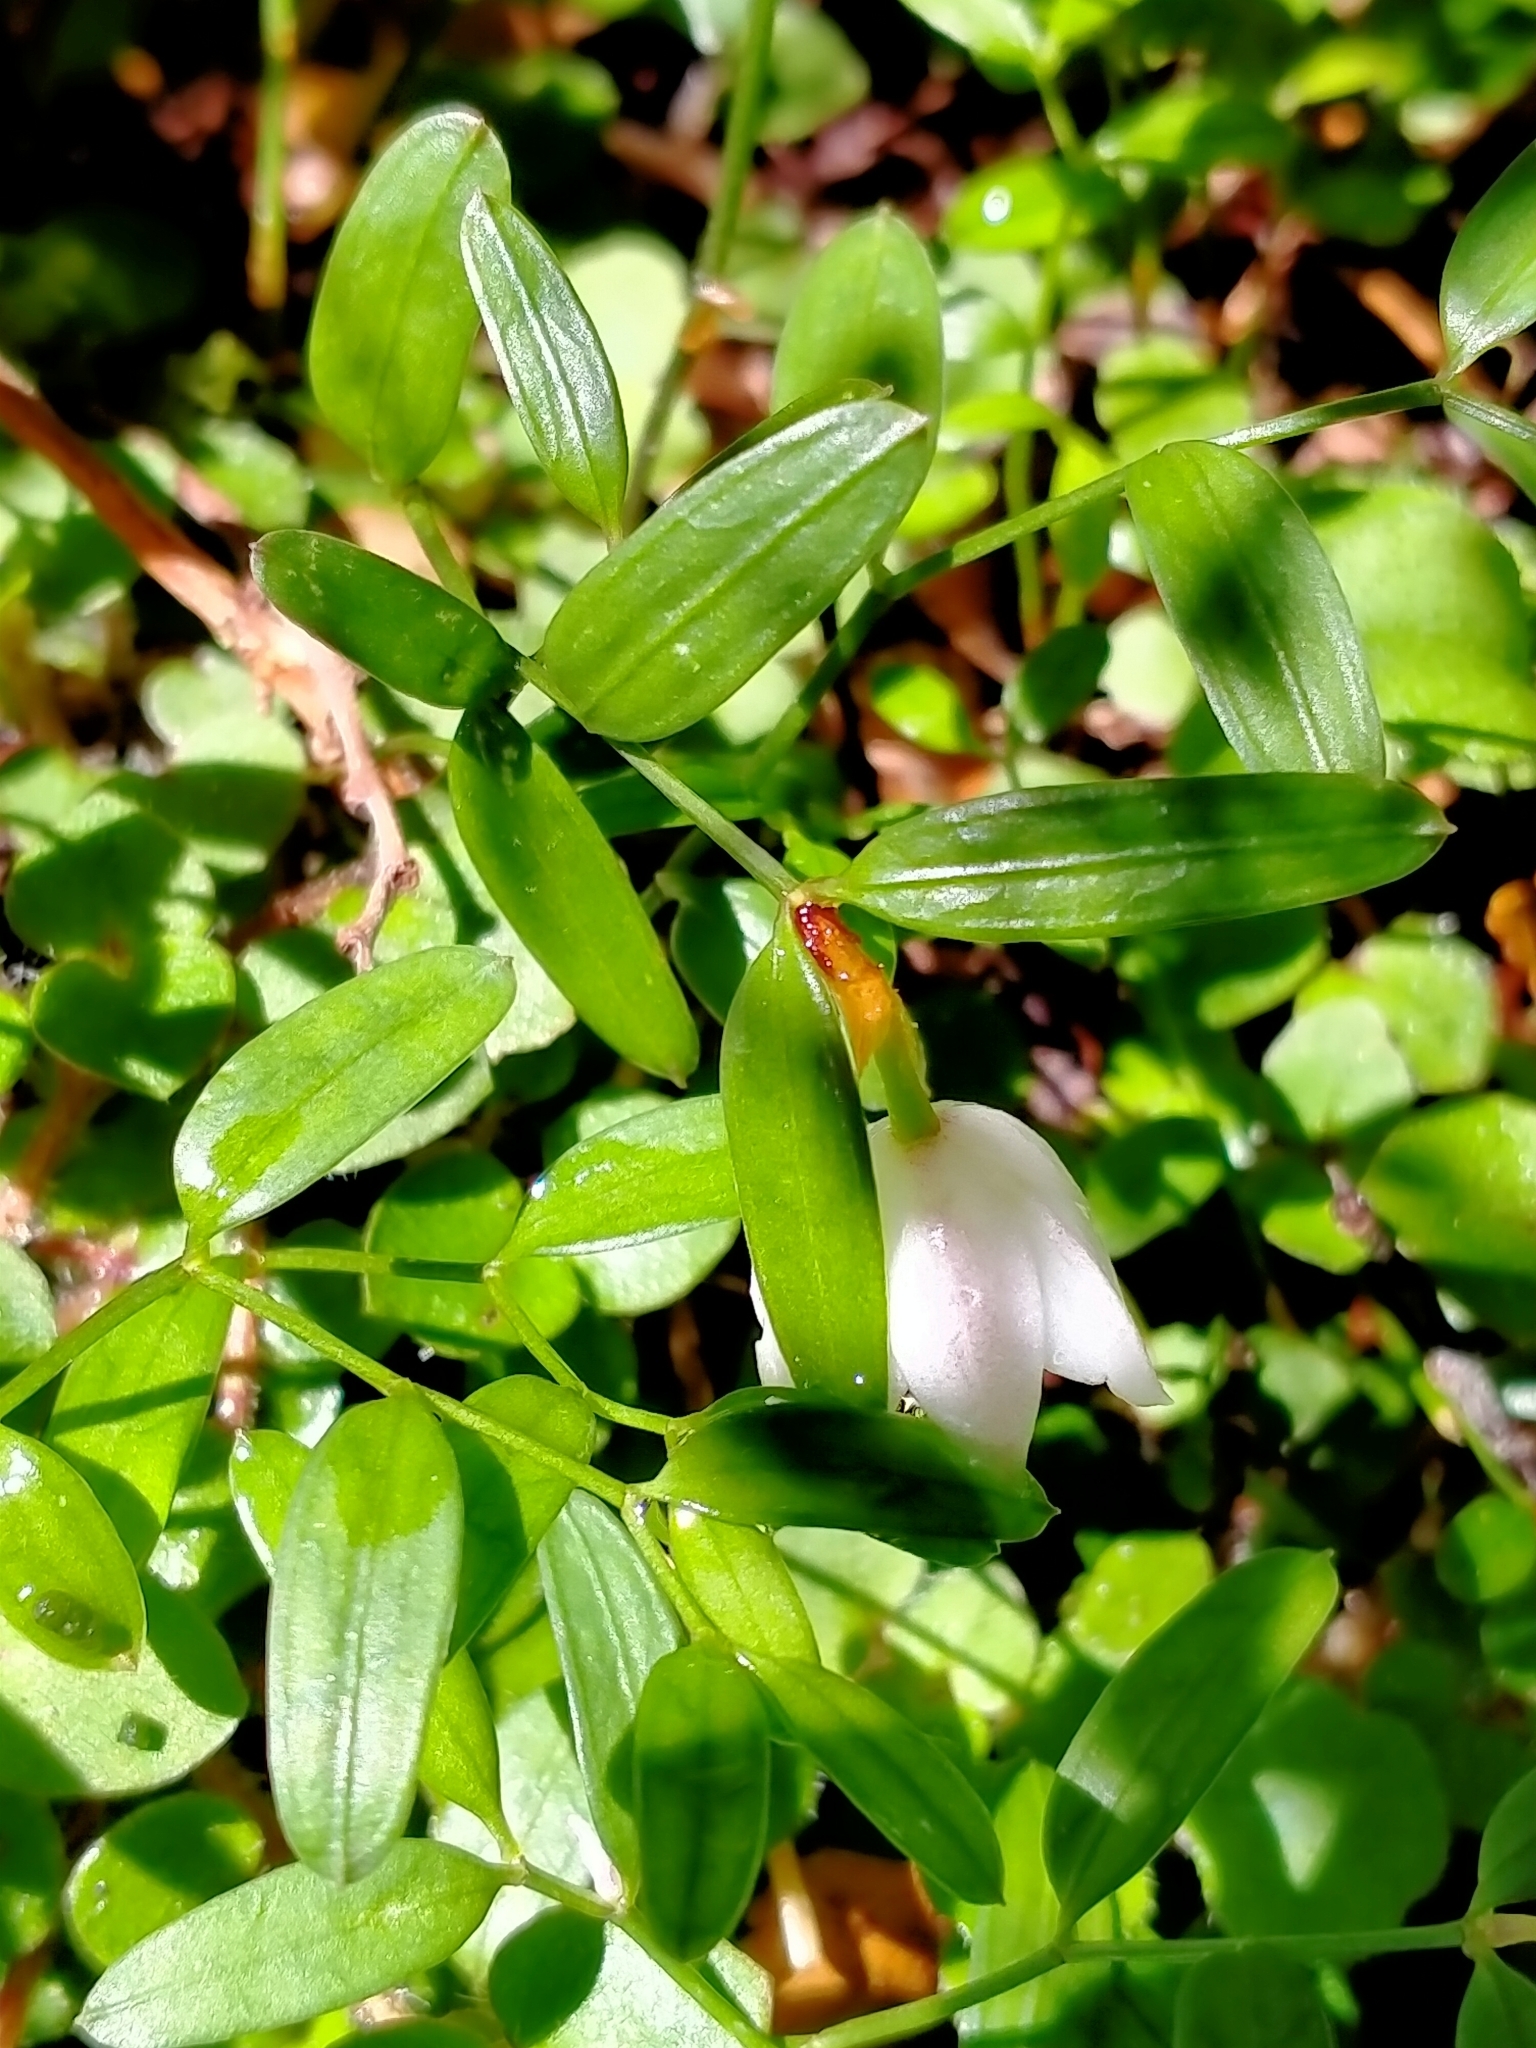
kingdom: Plantae
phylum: Tracheophyta
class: Liliopsida
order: Liliales
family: Alstroemeriaceae
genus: Luzuriaga
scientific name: Luzuriaga parviflora
